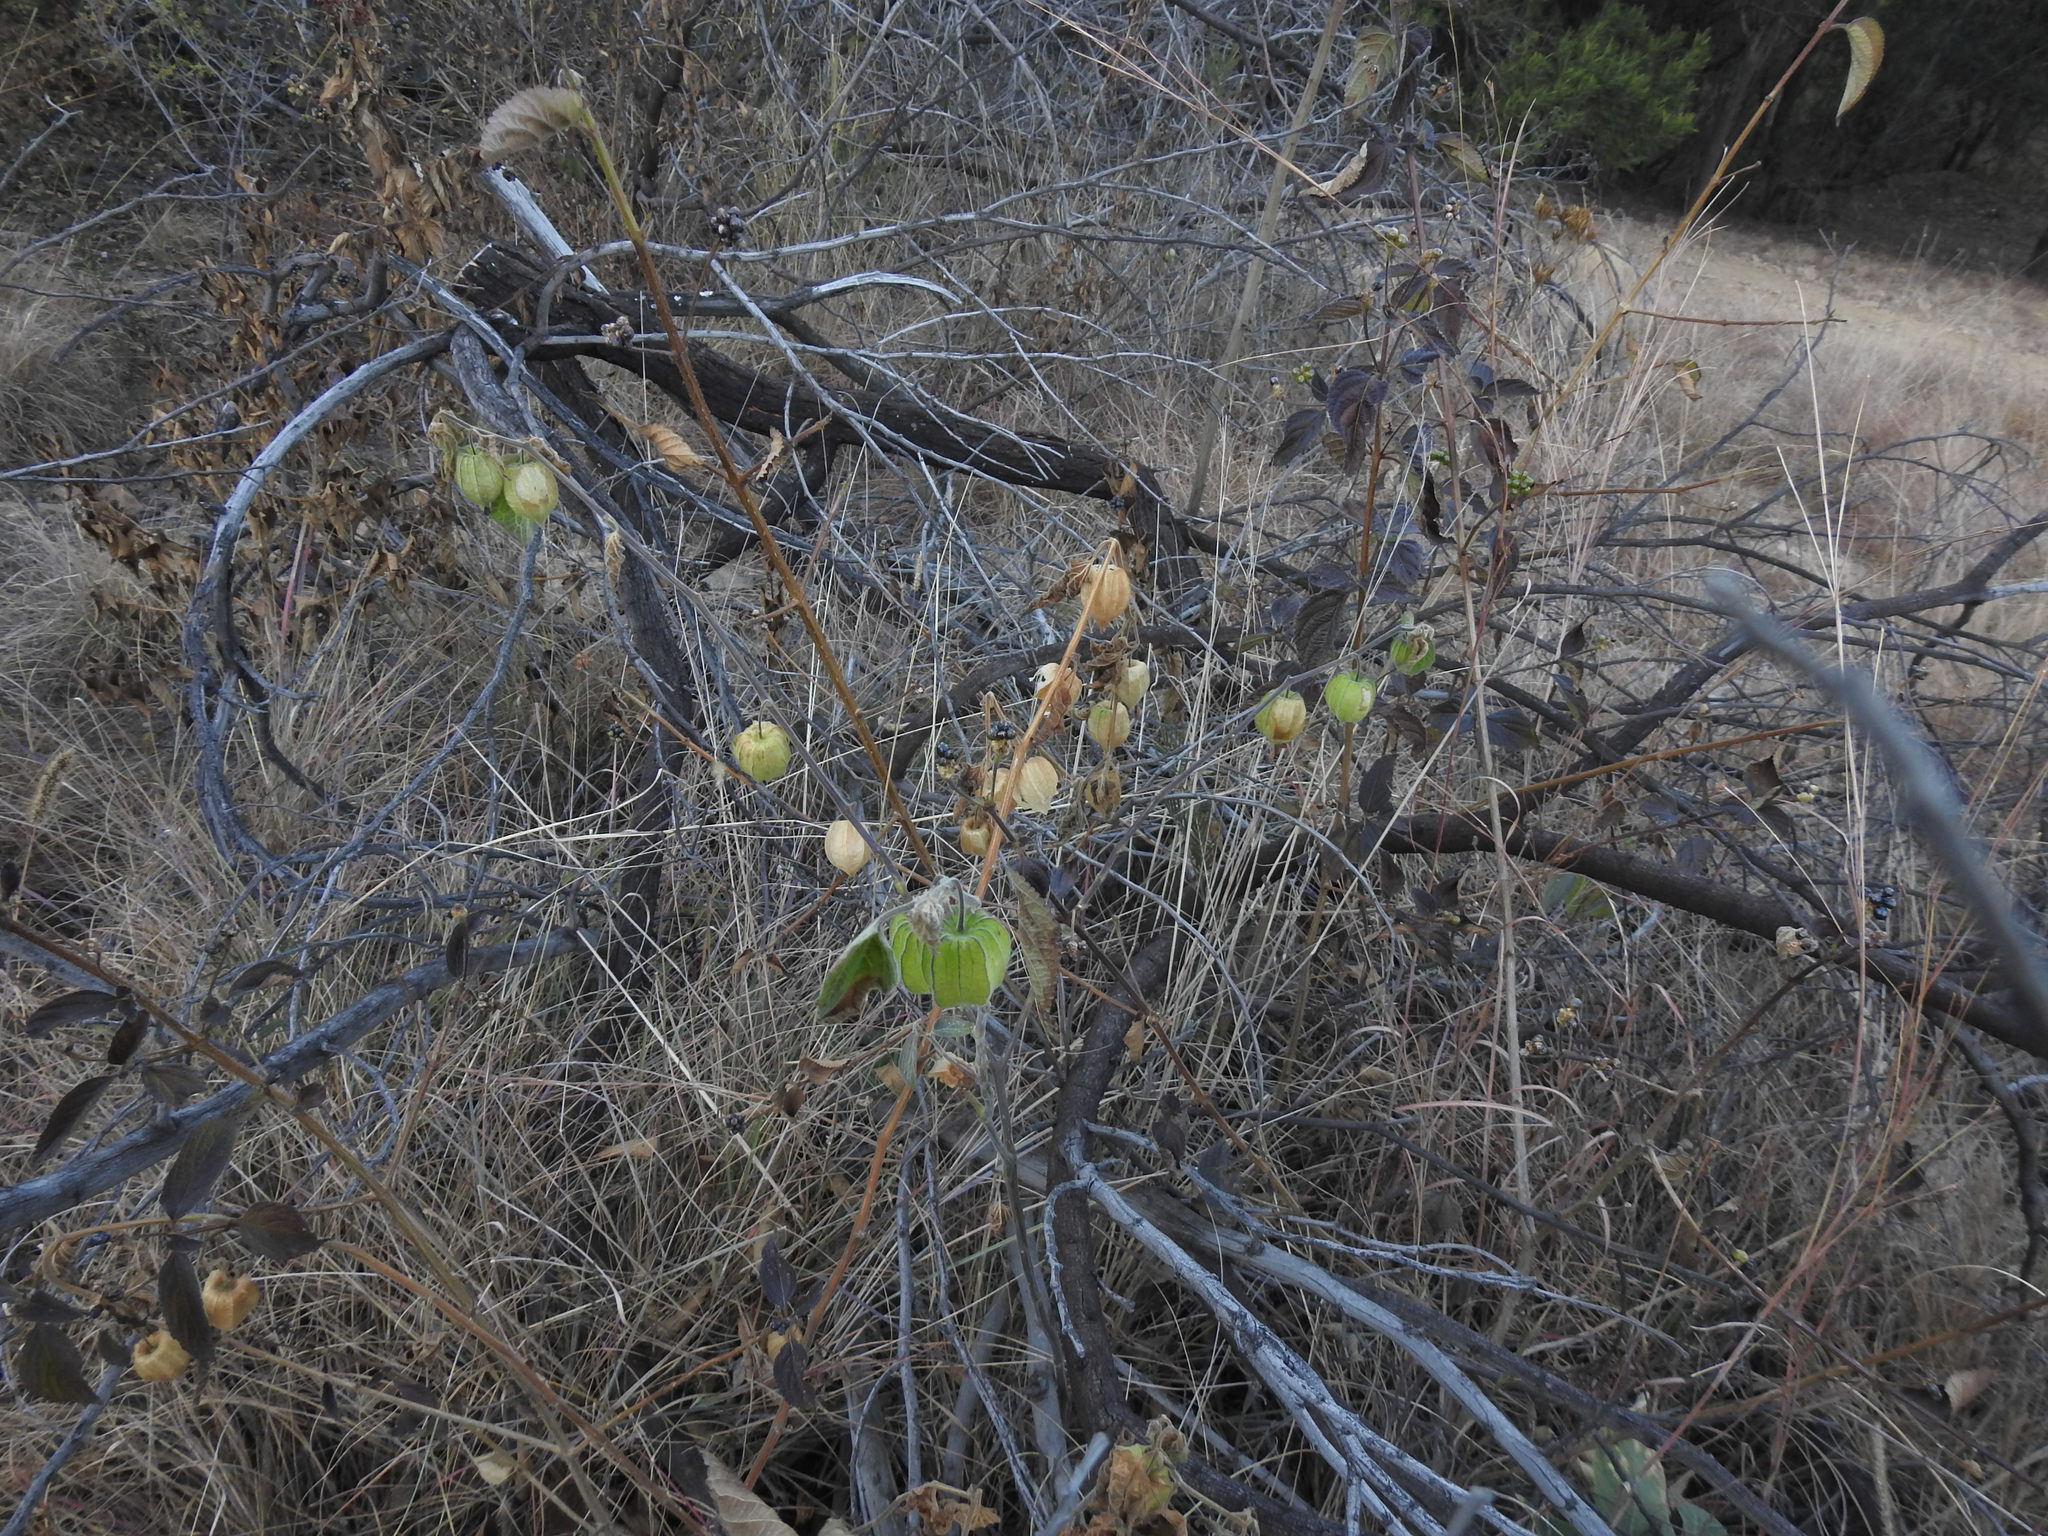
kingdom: Plantae
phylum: Tracheophyta
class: Magnoliopsida
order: Solanales
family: Solanaceae
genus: Physalis
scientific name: Physalis peruviana
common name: Cape-gooseberry
